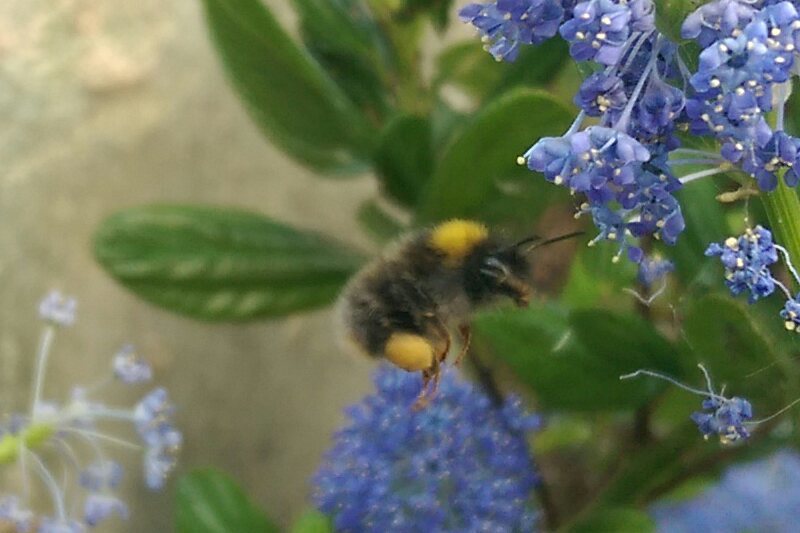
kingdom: Animalia
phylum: Arthropoda
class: Insecta
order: Hymenoptera
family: Apidae
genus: Bombus
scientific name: Bombus pratorum
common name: Early humble-bee
